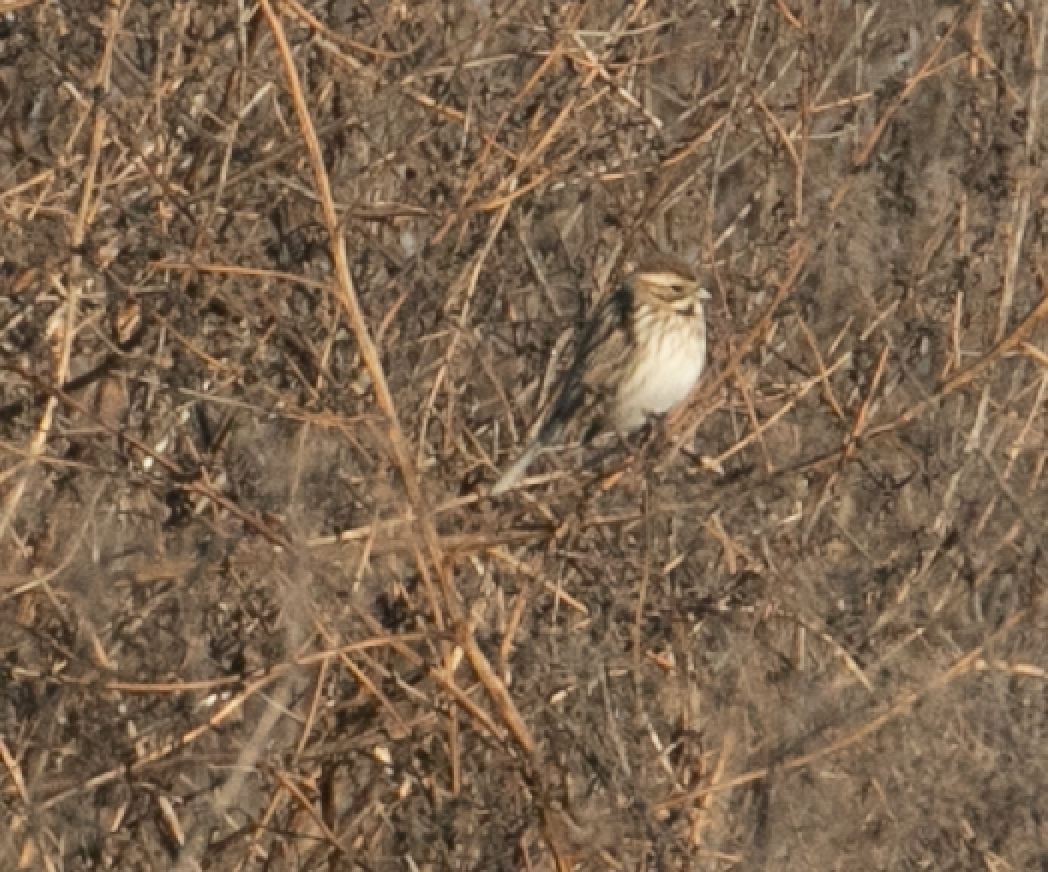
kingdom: Animalia
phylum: Chordata
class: Aves
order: Passeriformes
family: Emberizidae
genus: Emberiza
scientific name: Emberiza schoeniclus
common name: Reed bunting
